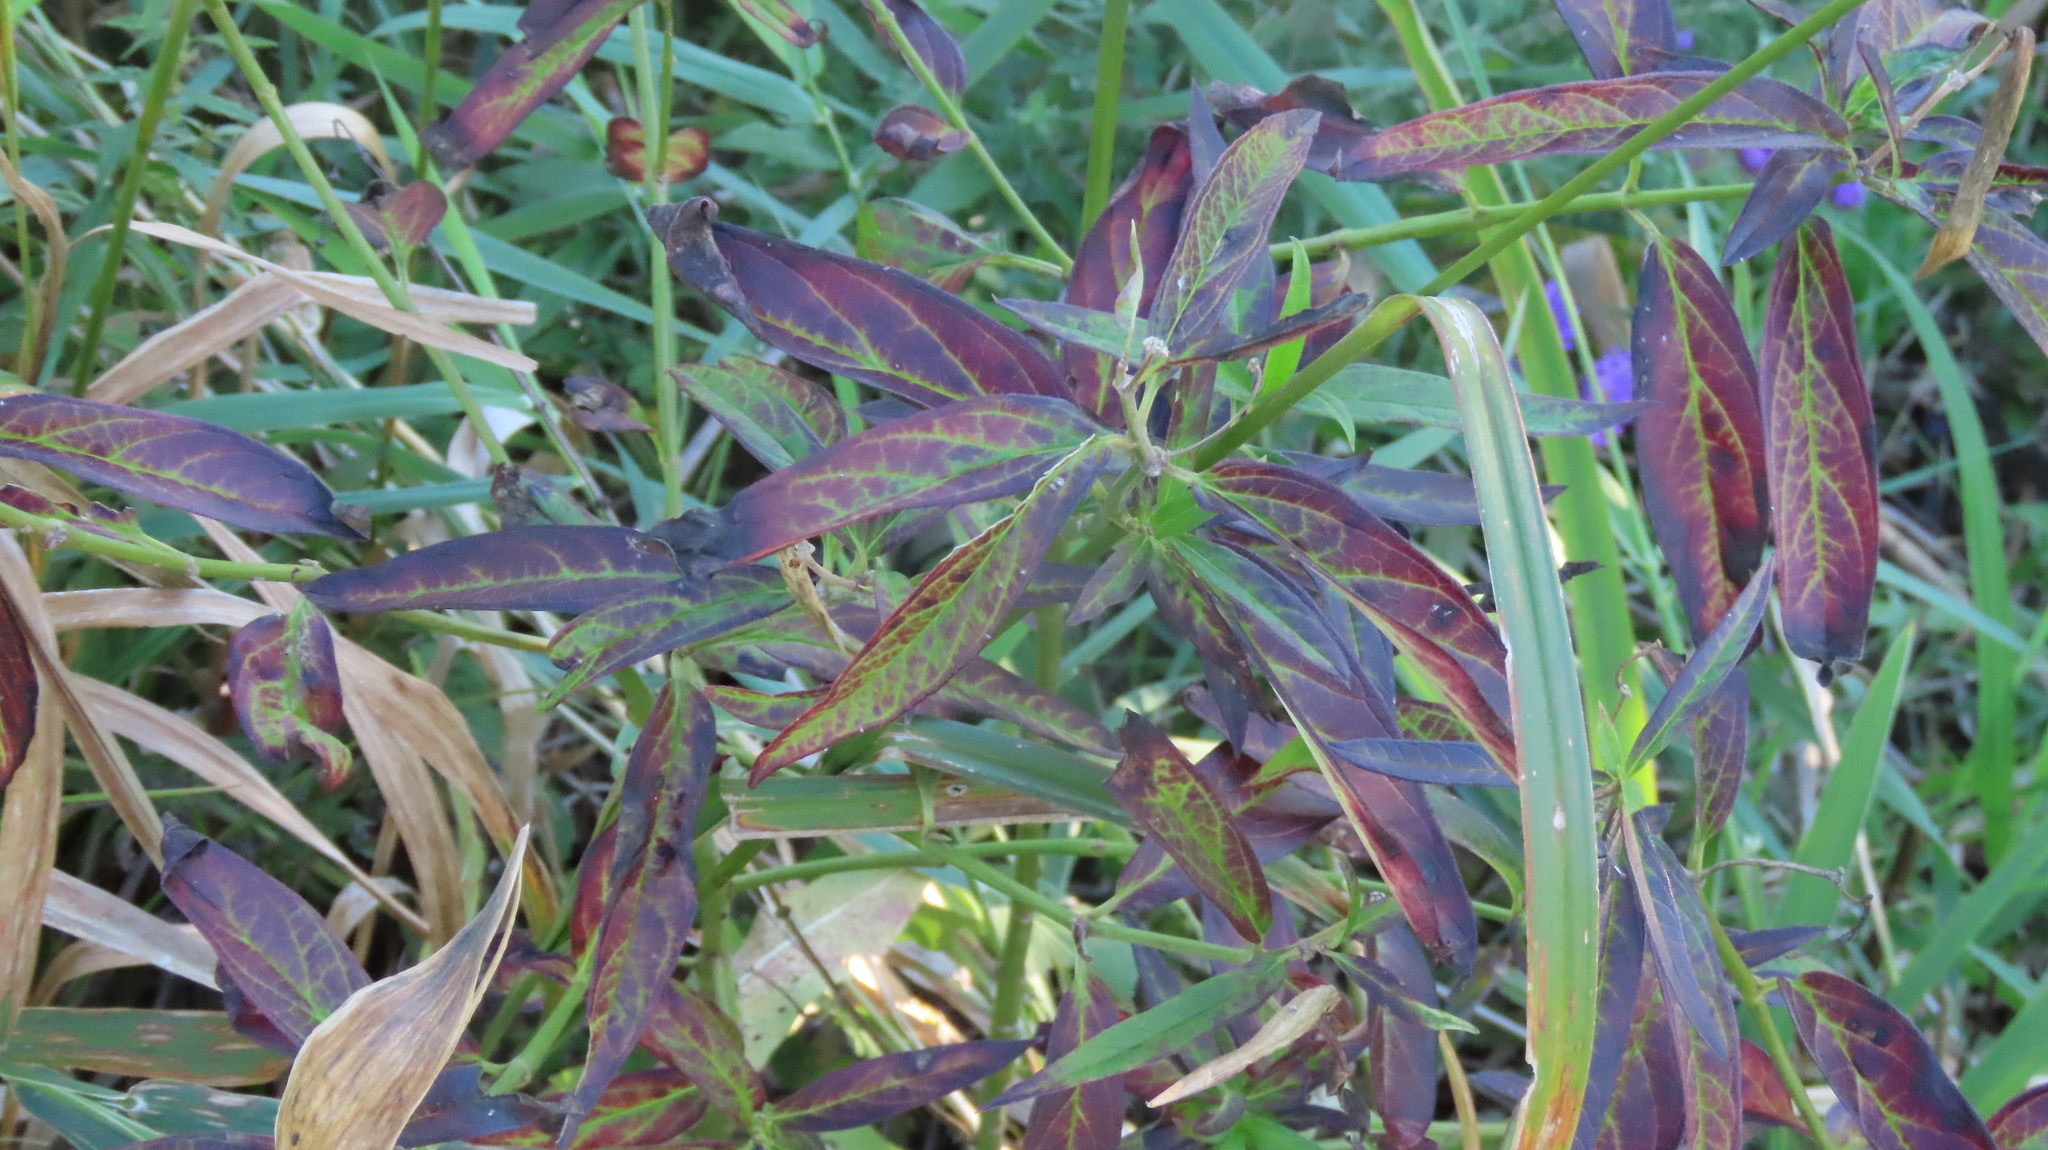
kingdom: Plantae
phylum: Tracheophyta
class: Magnoliopsida
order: Gentianales
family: Apocynaceae
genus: Asclepias
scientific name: Asclepias incarnata
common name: Swamp milkweed
